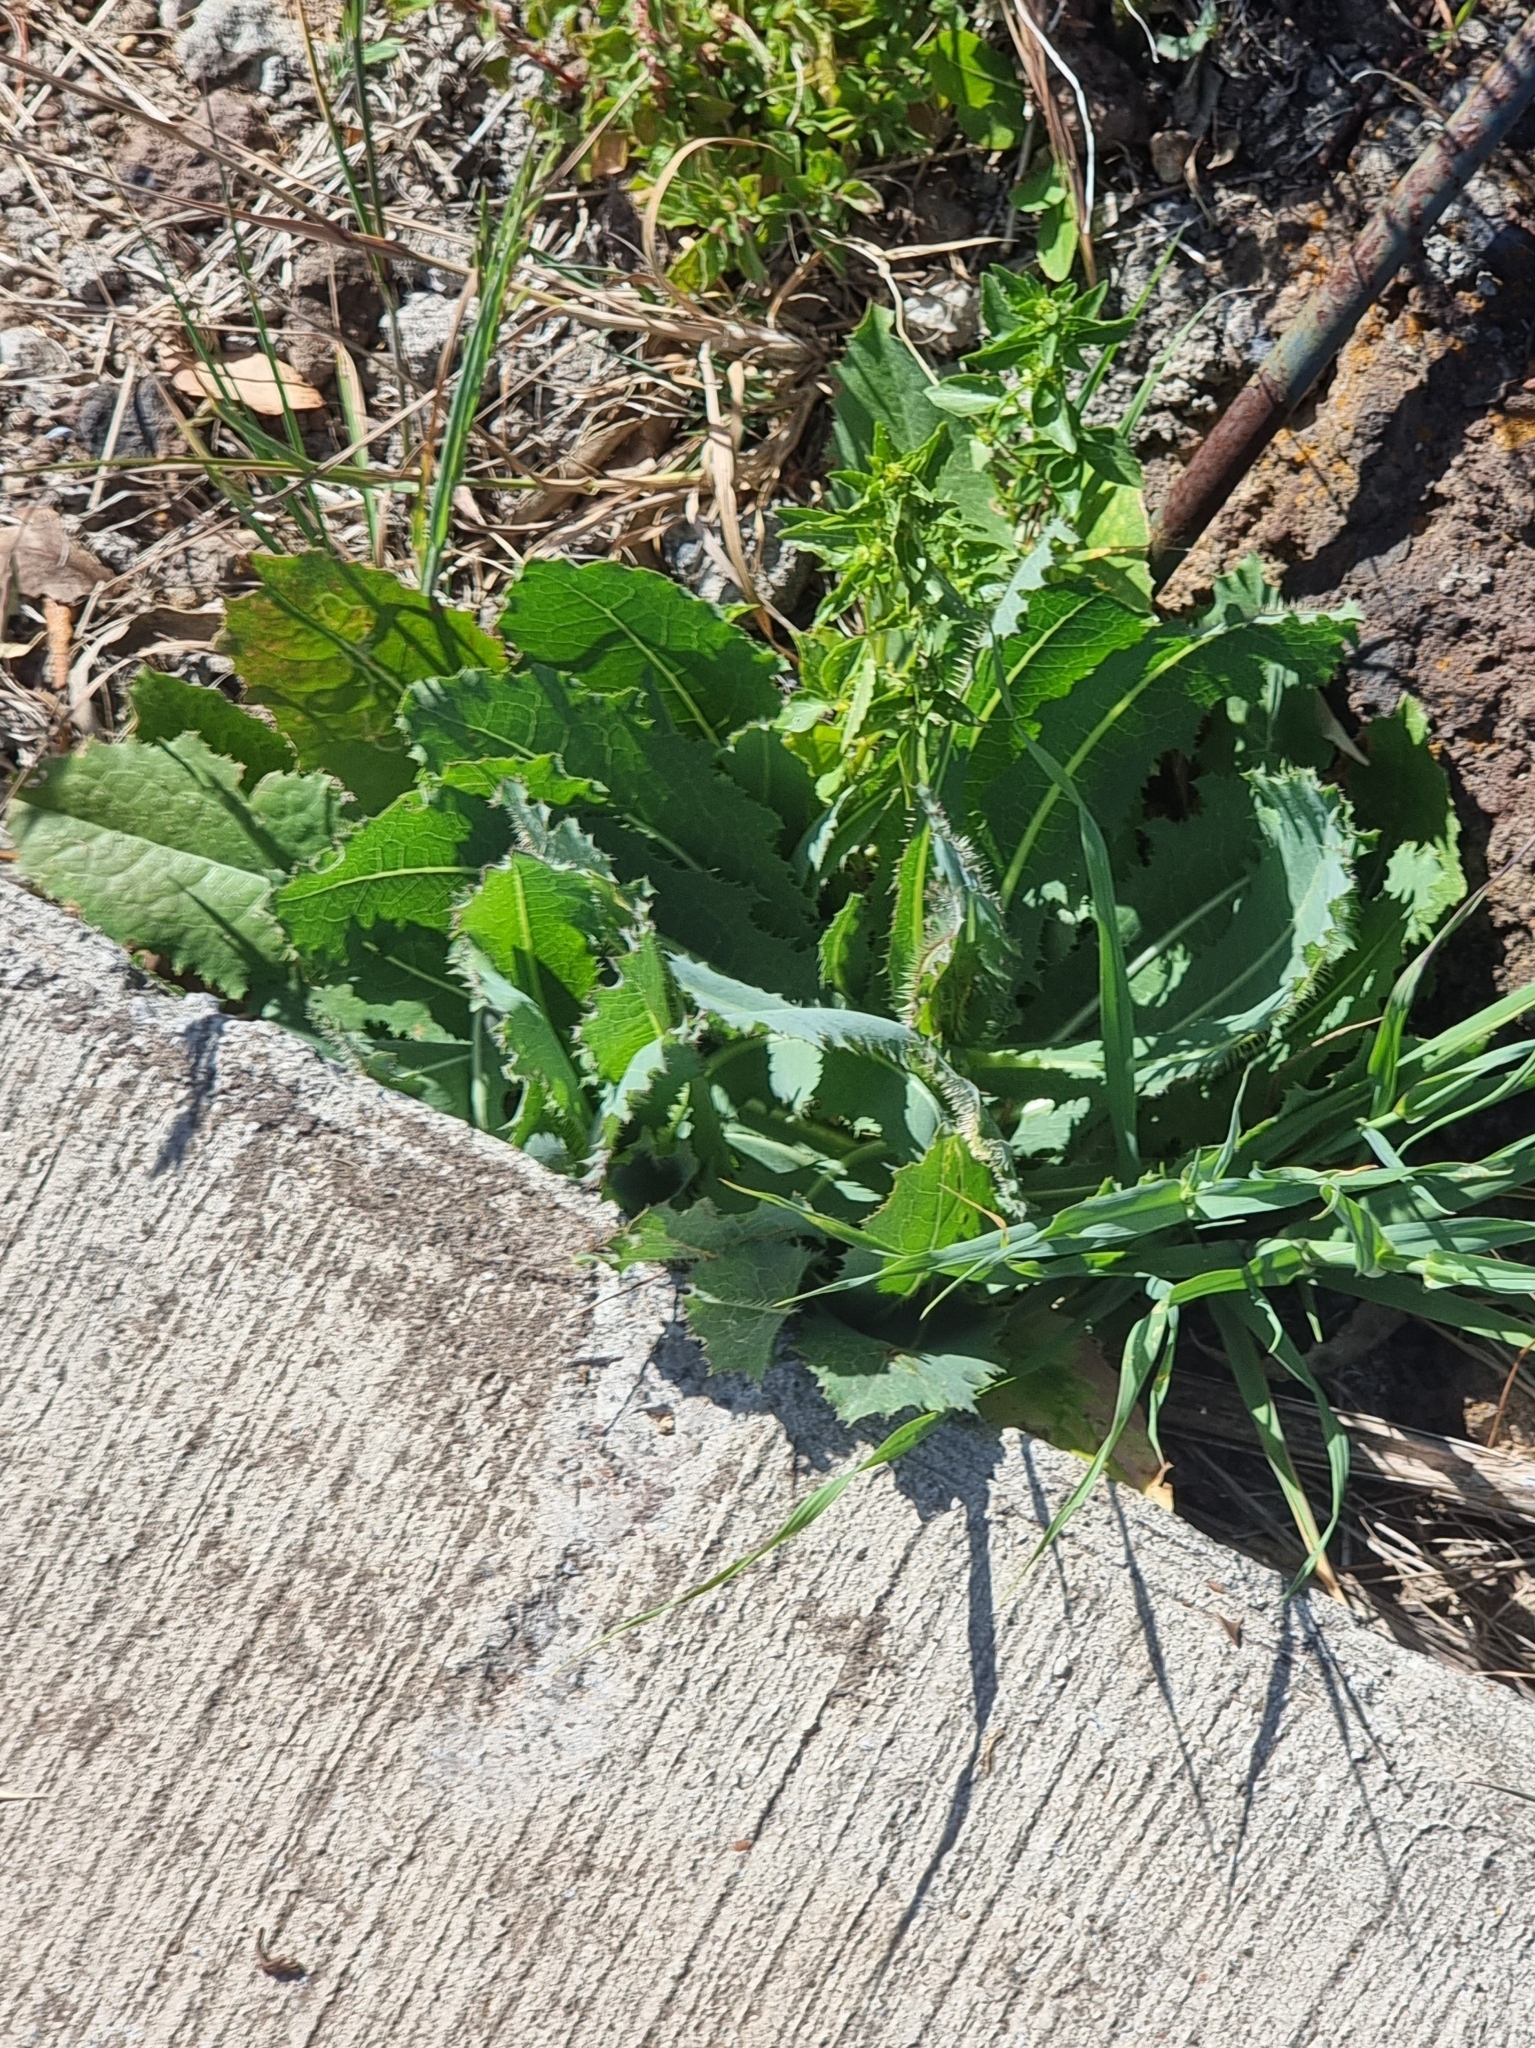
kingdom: Plantae
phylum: Tracheophyta
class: Magnoliopsida
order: Asterales
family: Asteraceae
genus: Lactuca
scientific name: Lactuca serriola
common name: Prickly lettuce
